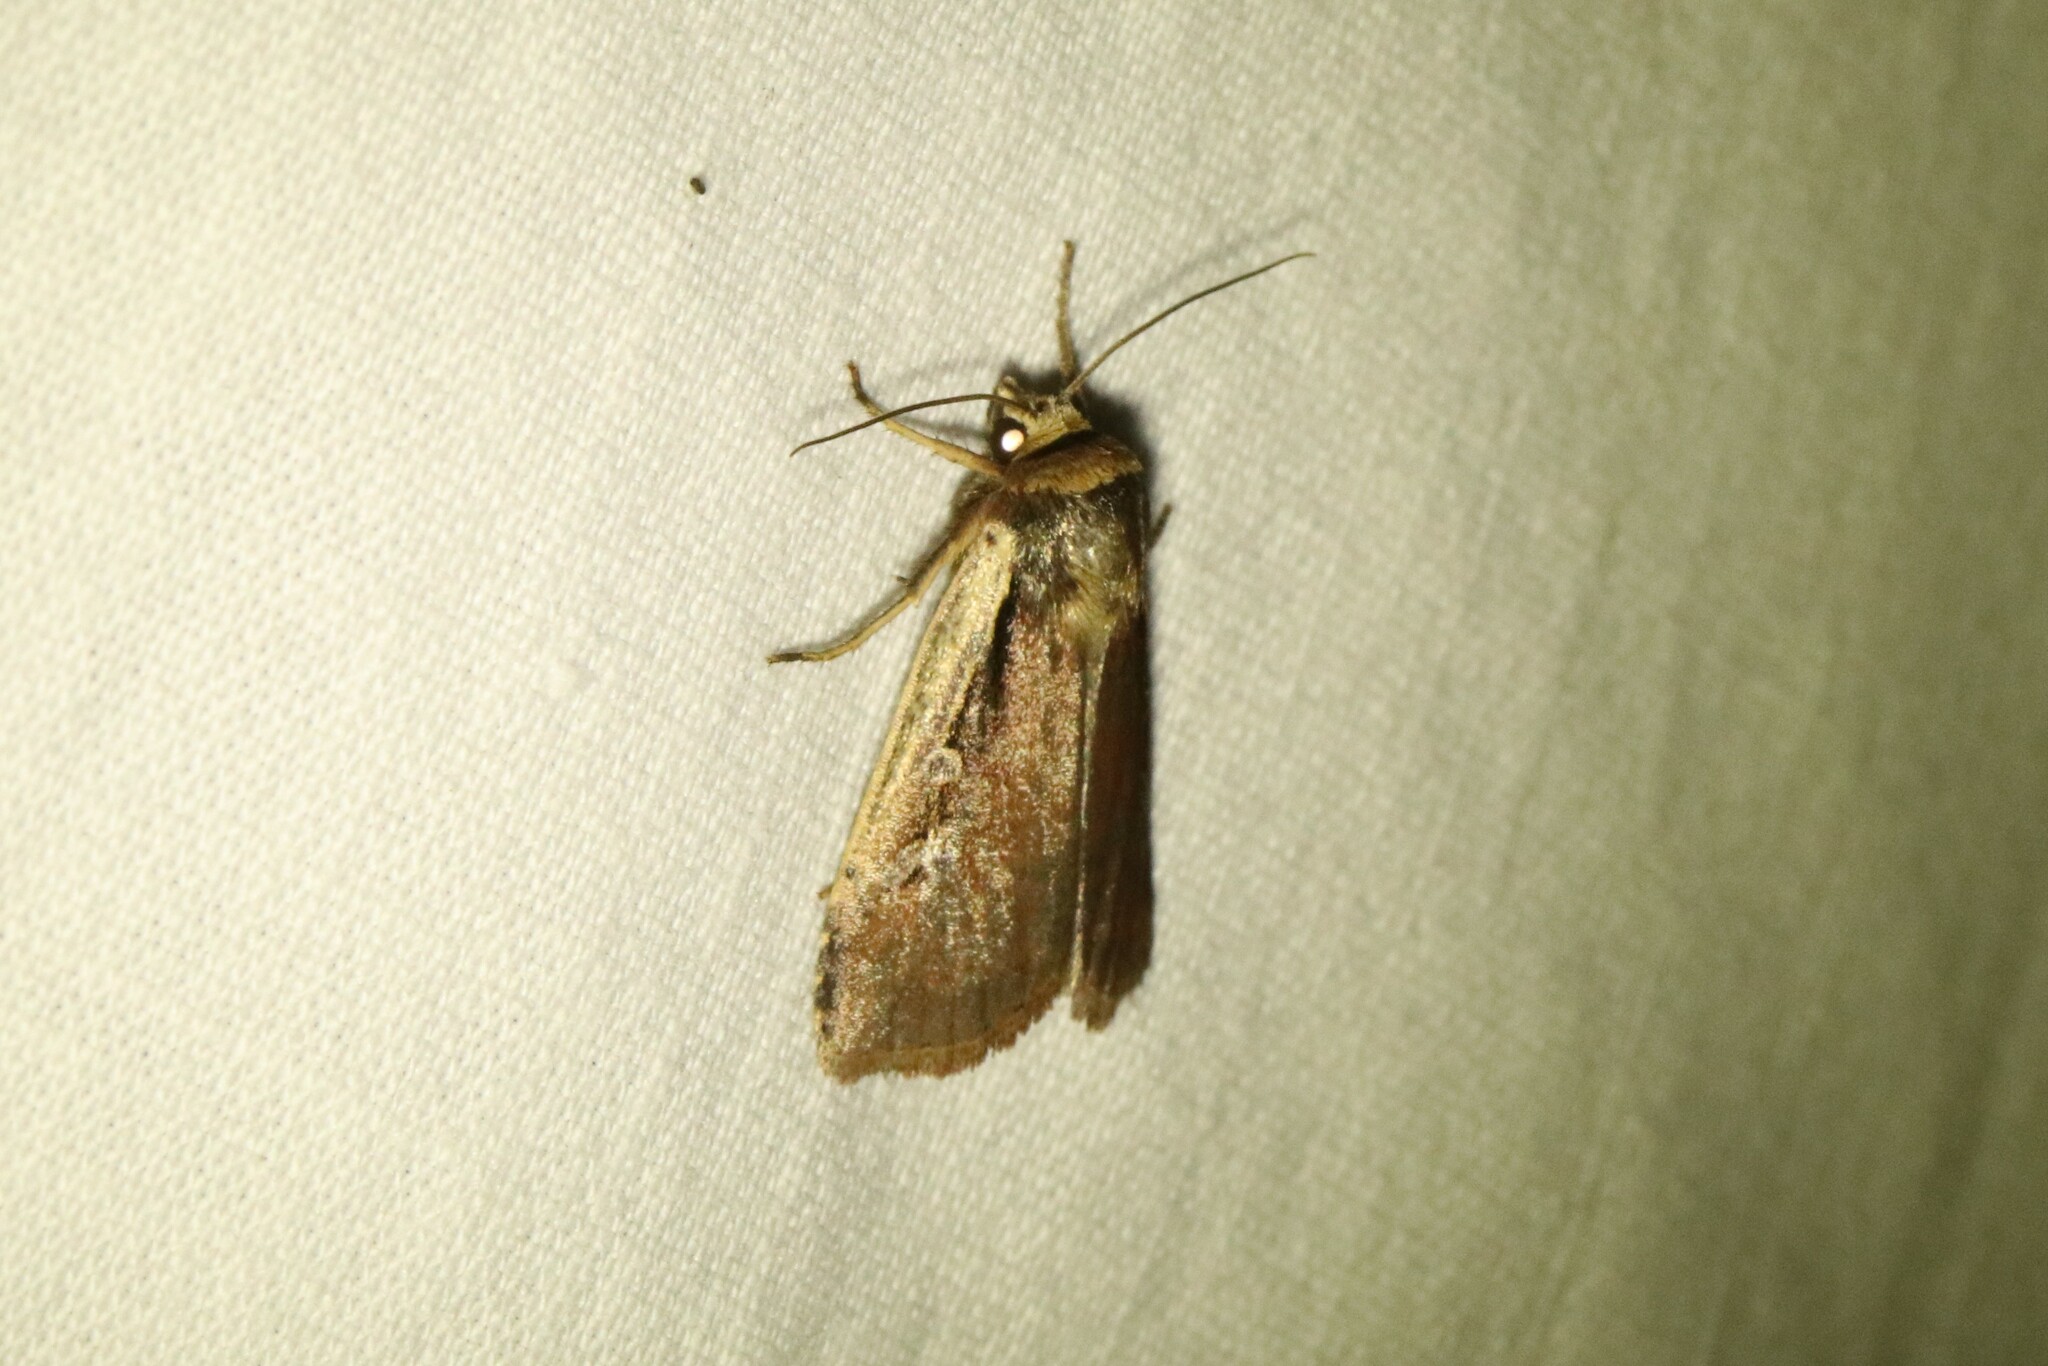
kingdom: Animalia
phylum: Arthropoda
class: Insecta
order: Lepidoptera
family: Noctuidae
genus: Ochropleura
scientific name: Ochropleura implecta
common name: Flame-shouldered dart
